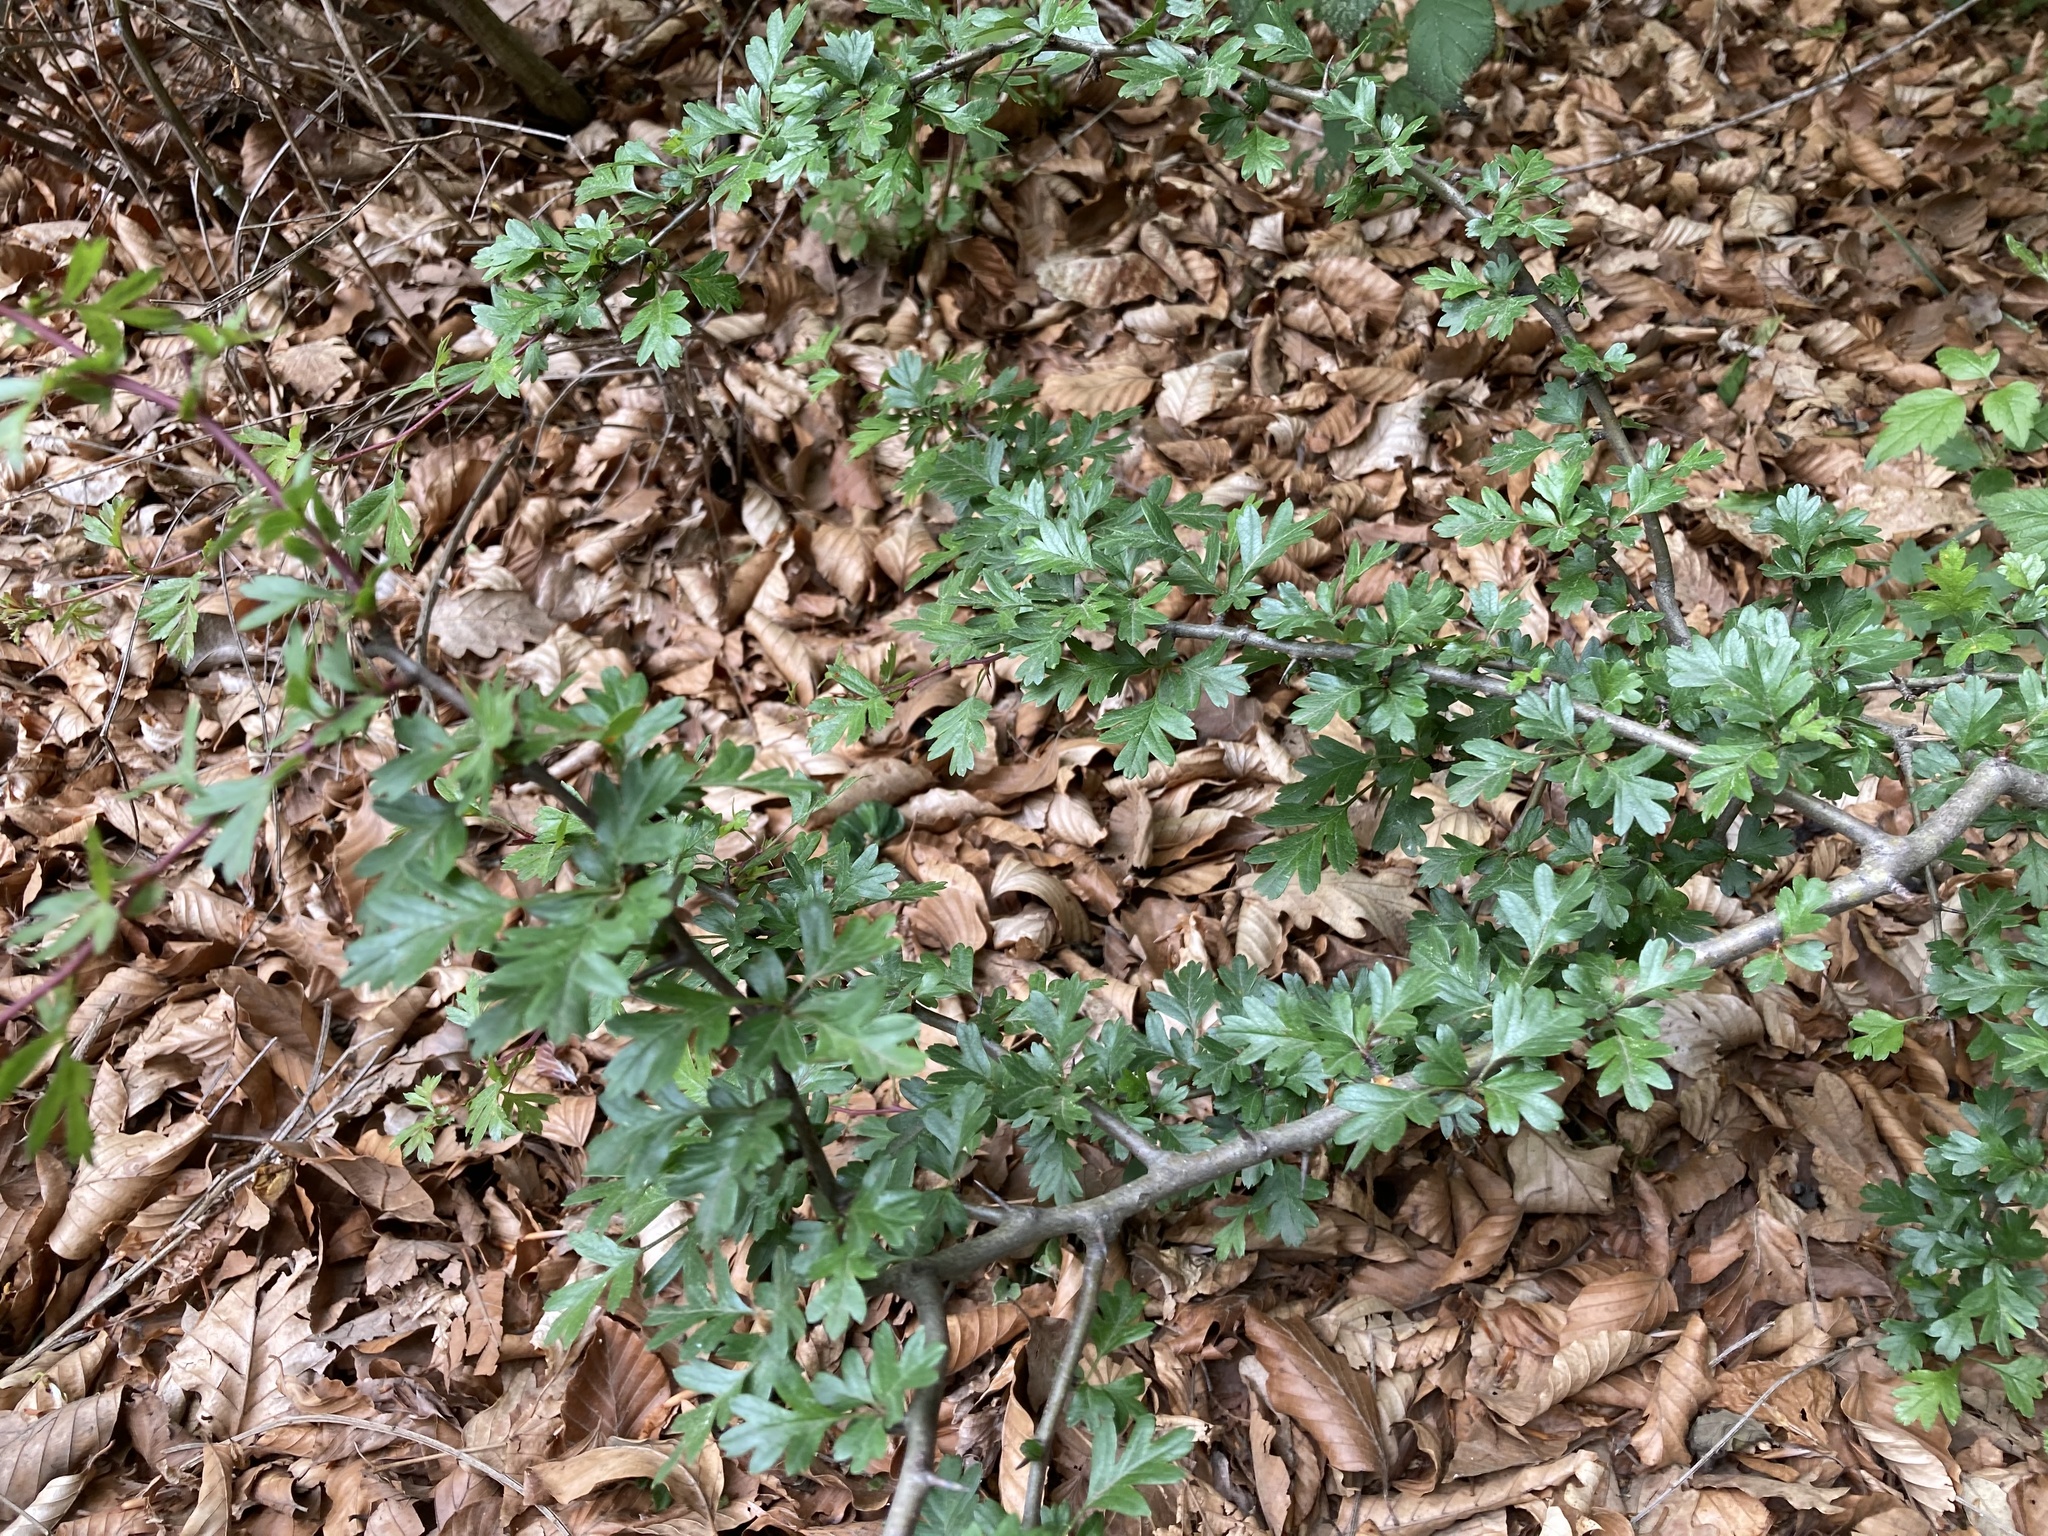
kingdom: Plantae
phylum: Tracheophyta
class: Magnoliopsida
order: Rosales
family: Rosaceae
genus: Crataegus
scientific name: Crataegus monogyna
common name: Hawthorn
